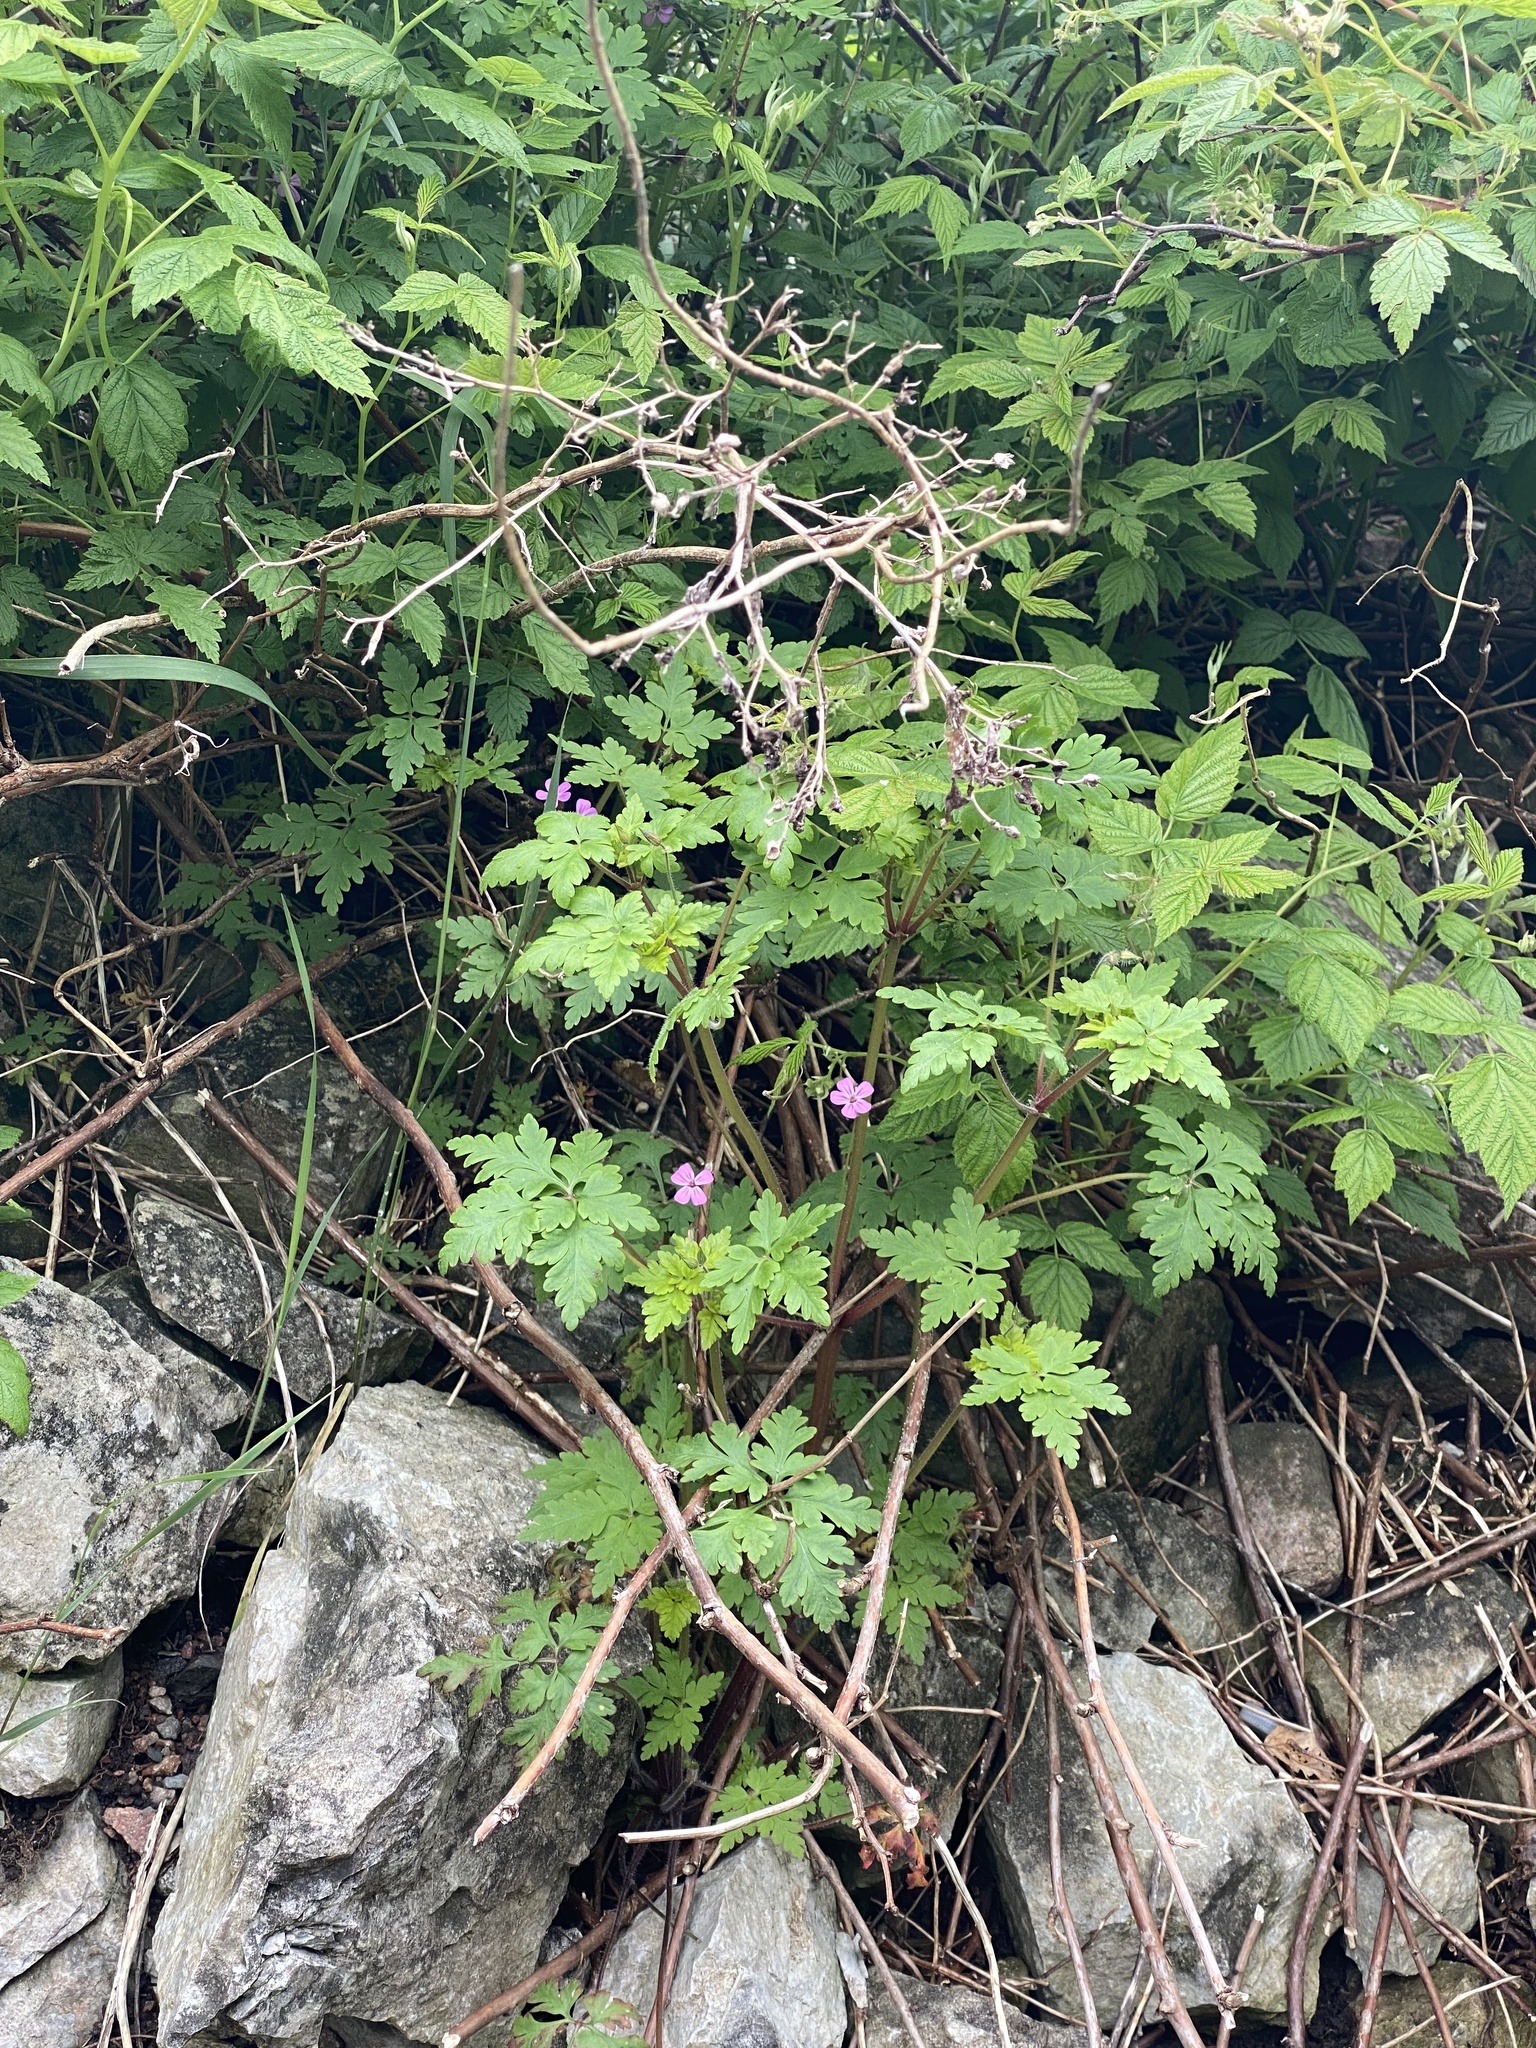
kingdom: Plantae
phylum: Tracheophyta
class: Magnoliopsida
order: Geraniales
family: Geraniaceae
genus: Geranium
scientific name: Geranium robertianum
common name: Herb-robert
